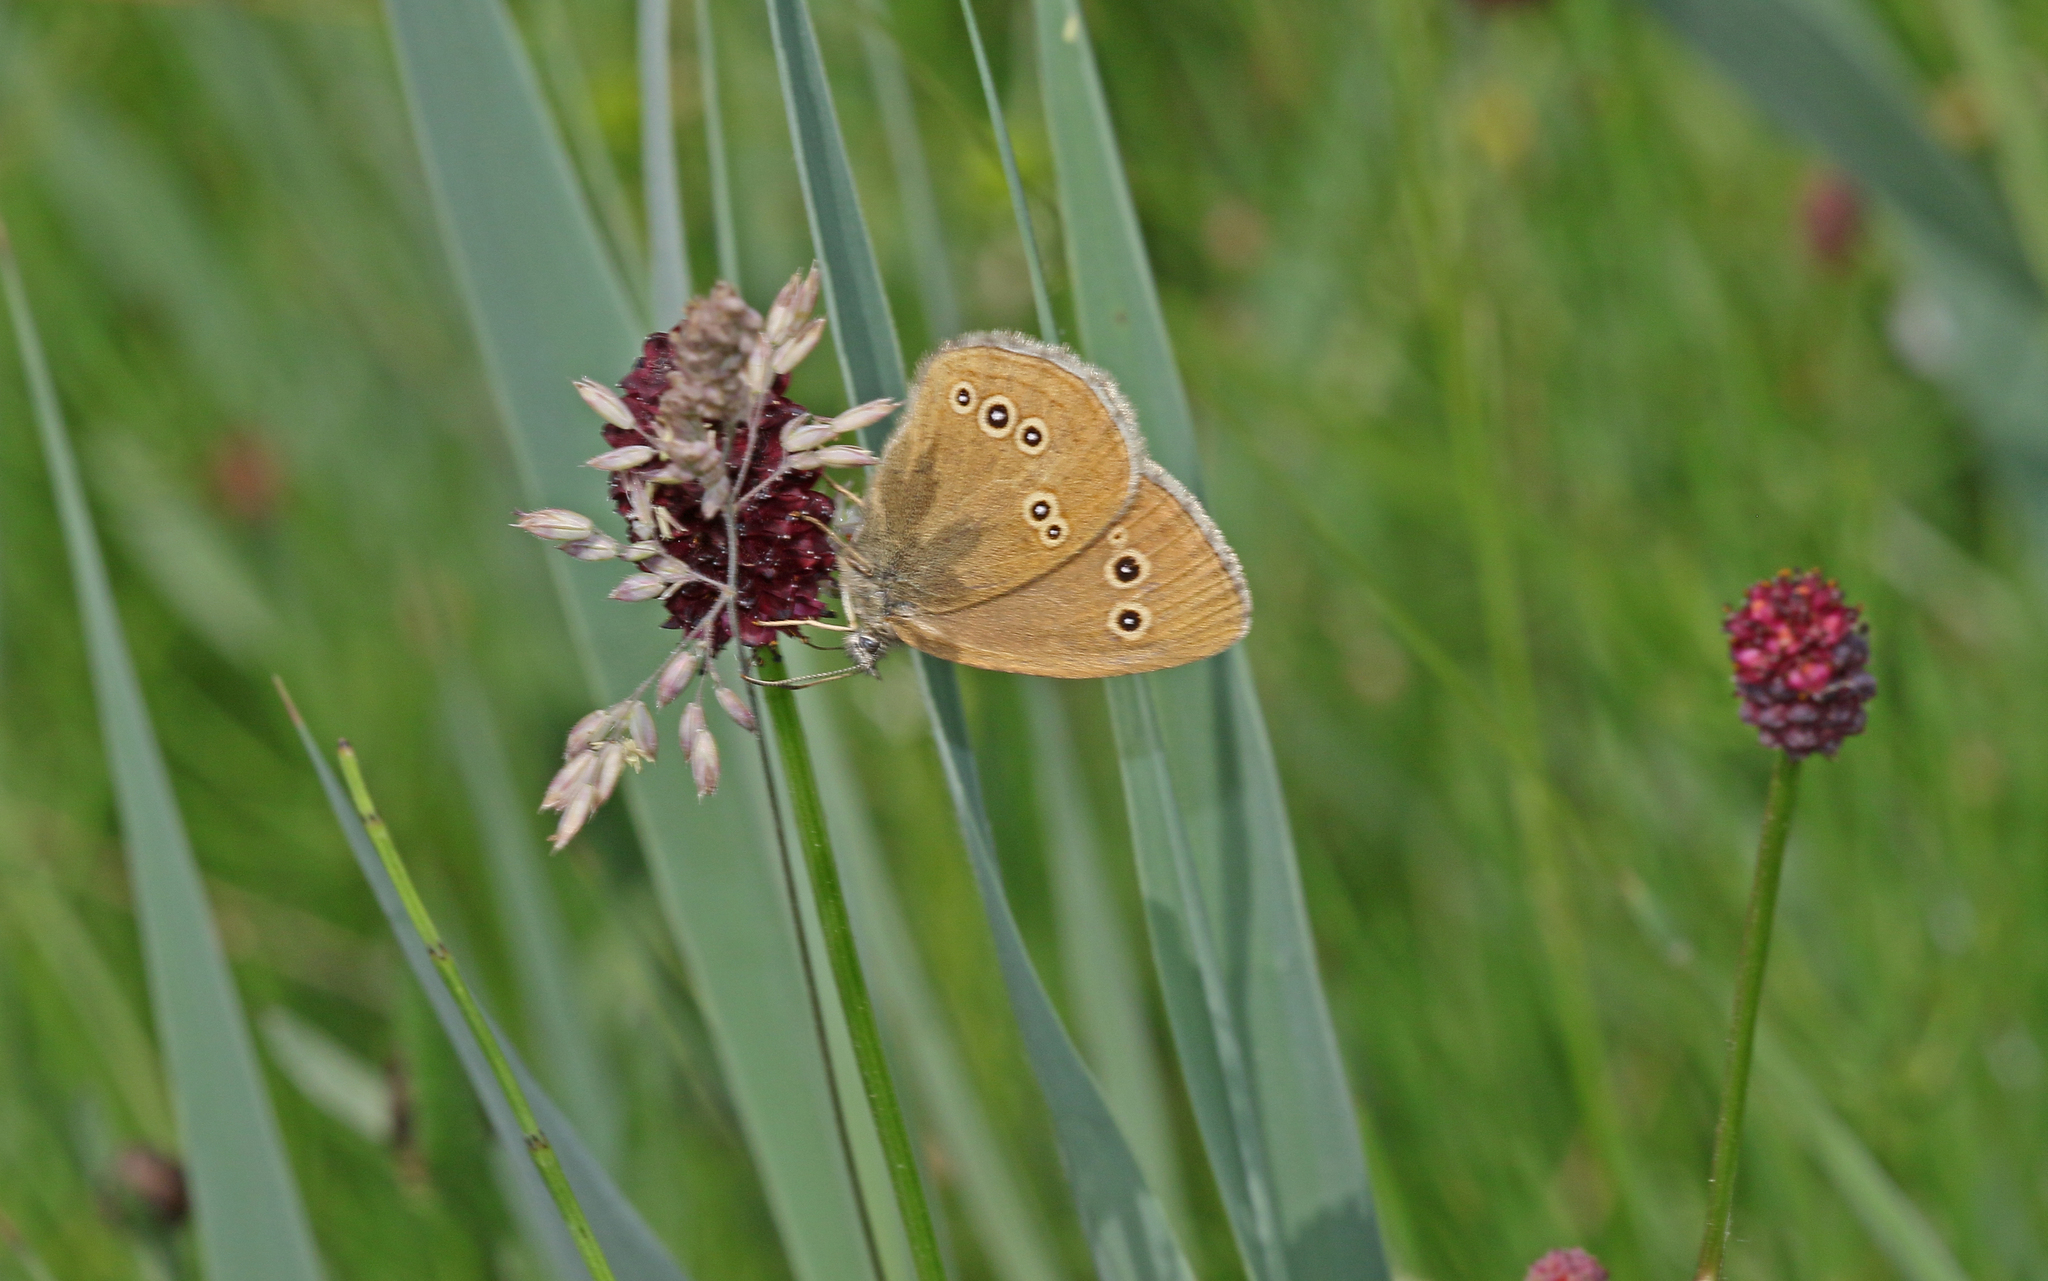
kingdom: Animalia
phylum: Arthropoda
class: Insecta
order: Lepidoptera
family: Nymphalidae
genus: Aphantopus
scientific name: Aphantopus hyperantus
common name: Ringlet
